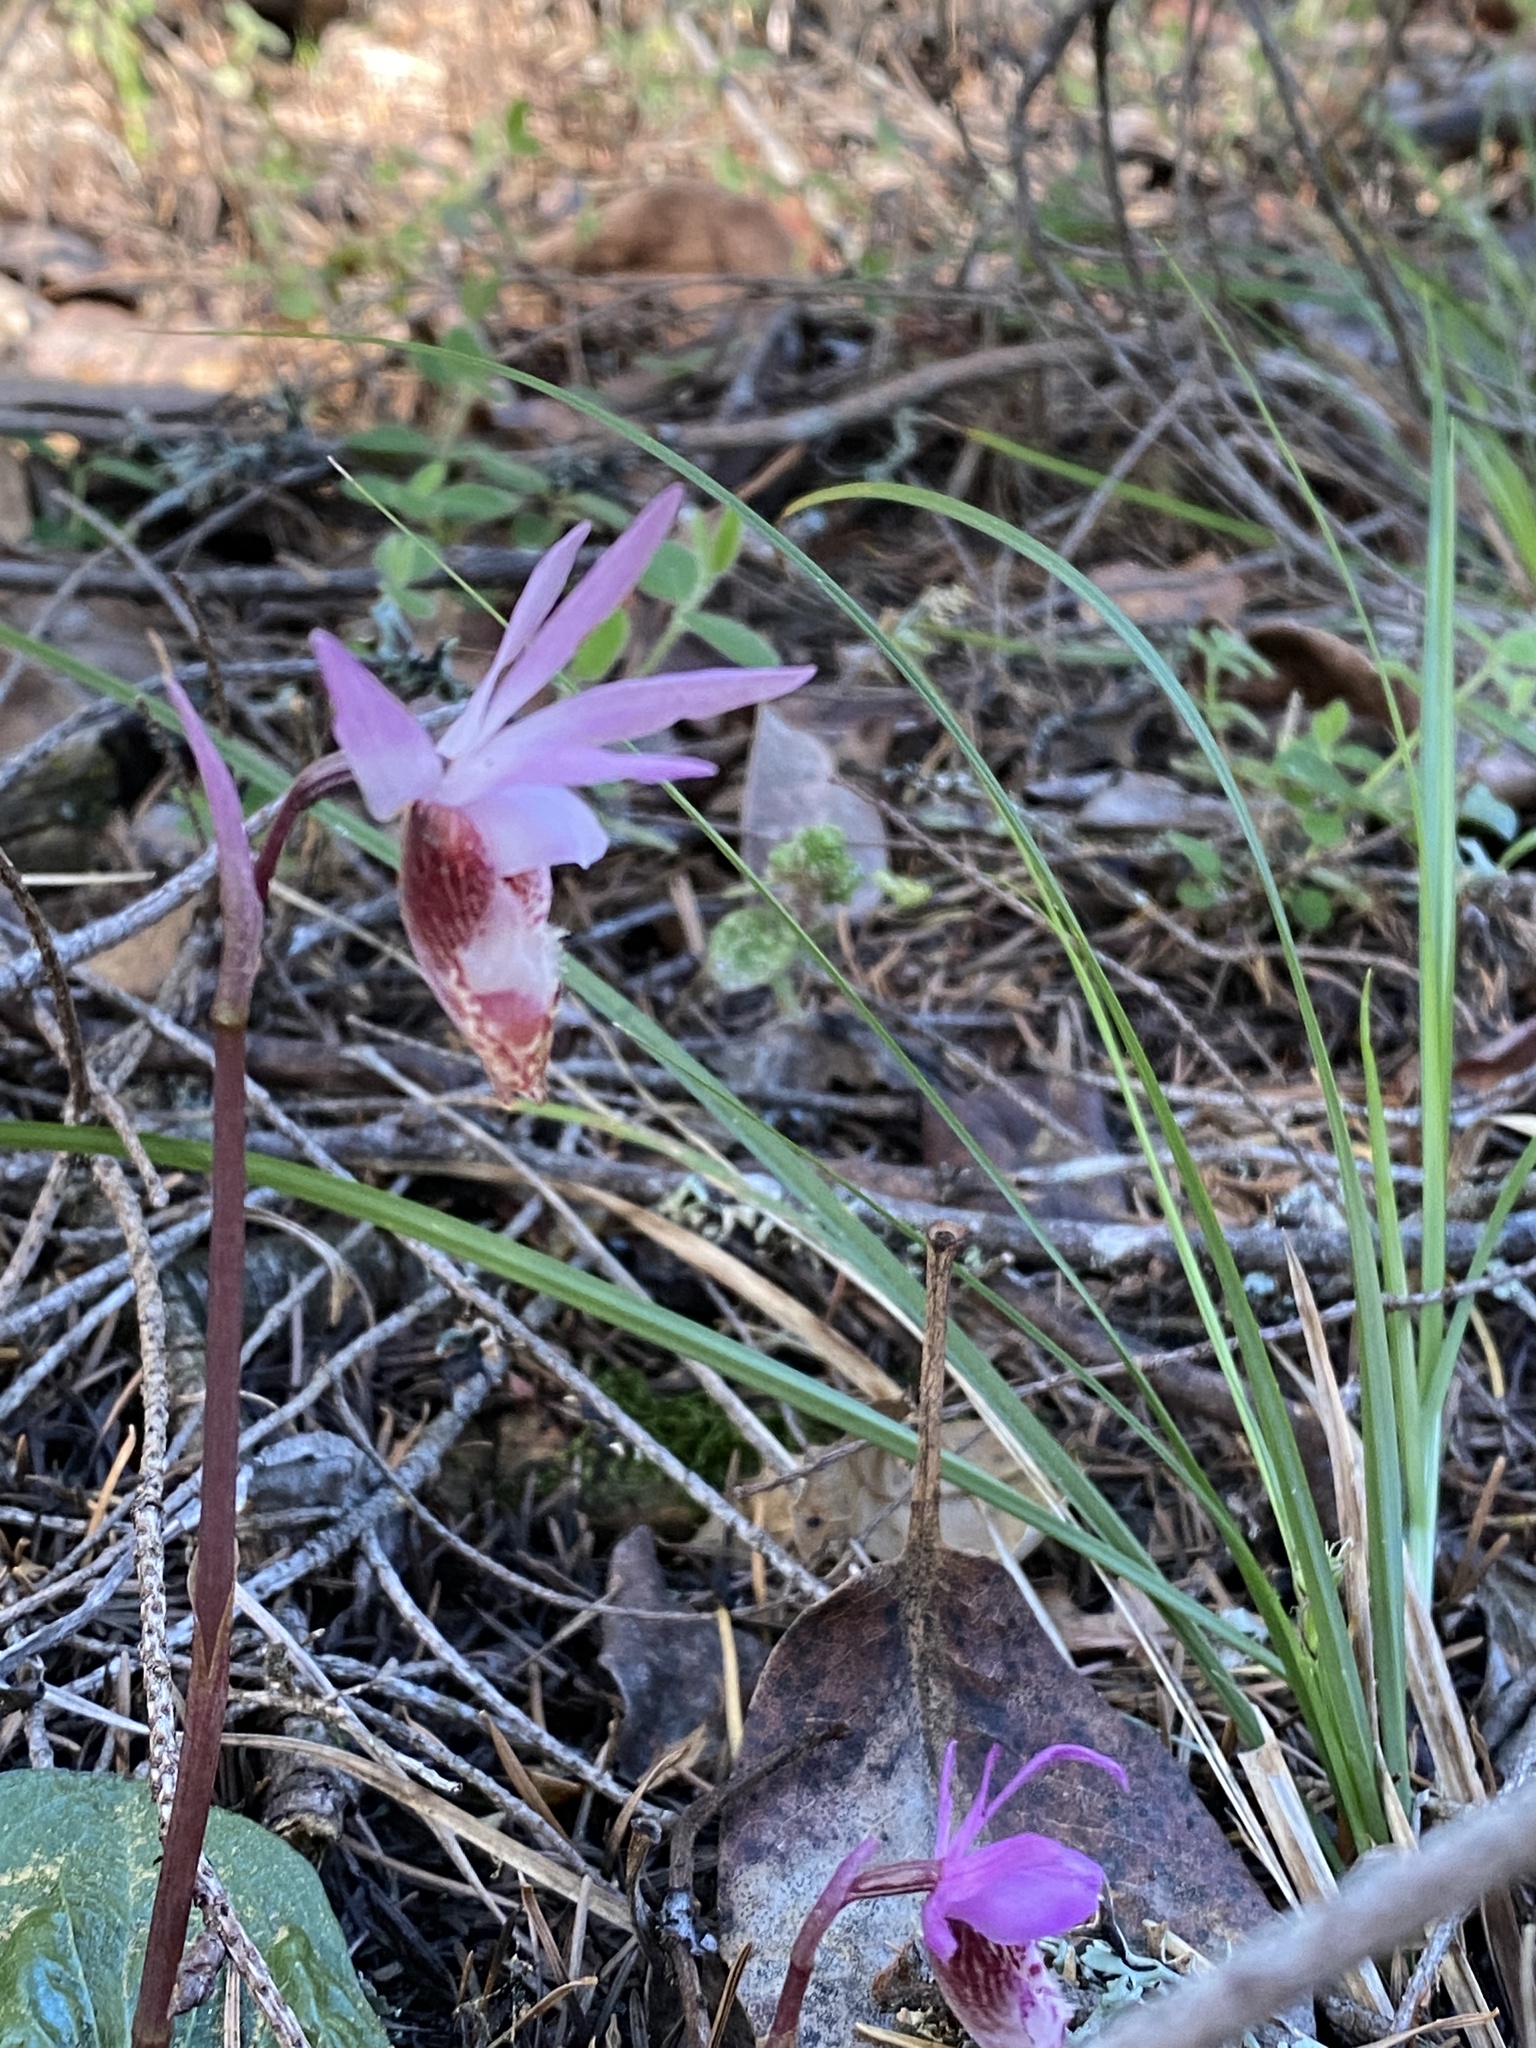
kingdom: Plantae
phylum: Tracheophyta
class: Liliopsida
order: Asparagales
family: Orchidaceae
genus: Calypso
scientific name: Calypso bulbosa
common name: Calypso
